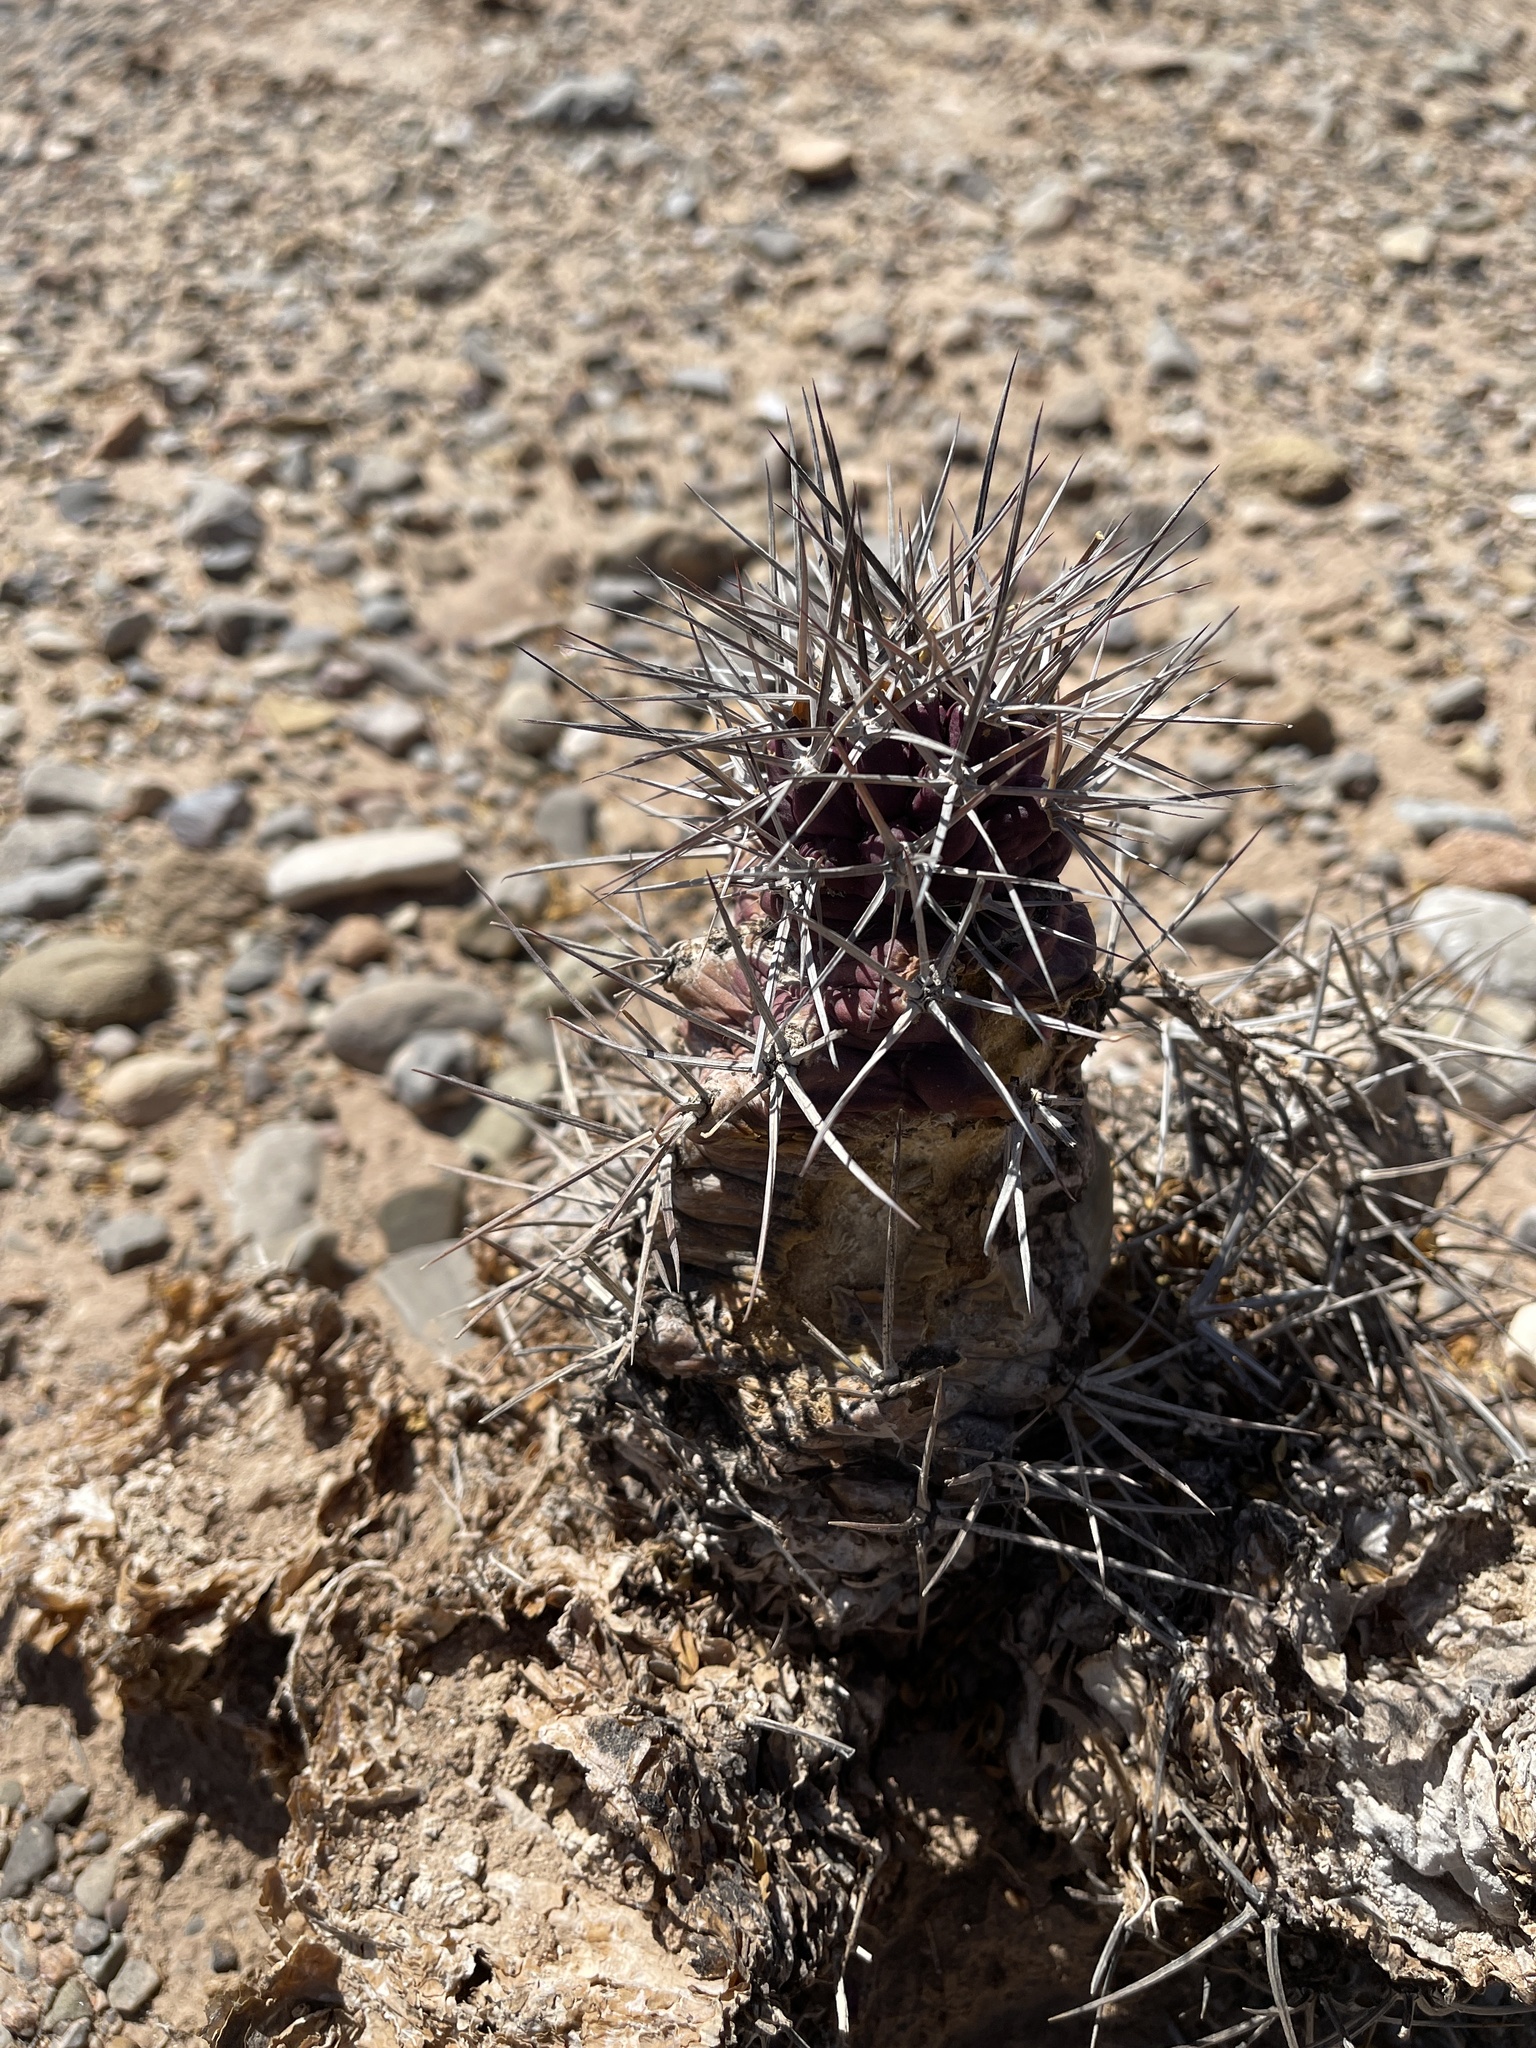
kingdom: Plantae
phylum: Tracheophyta
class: Magnoliopsida
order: Caryophyllales
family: Cactaceae
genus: Echinocereus
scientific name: Echinocereus triglochidiatus
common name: Claretcup hedgehog
